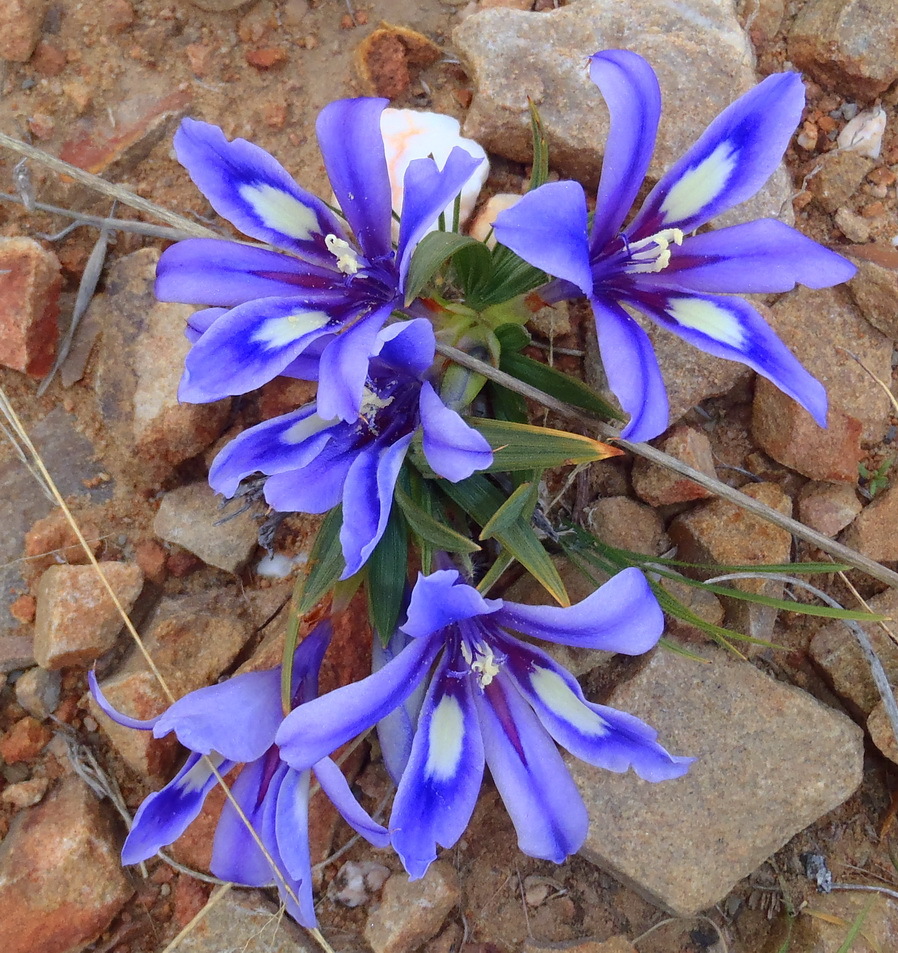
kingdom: Plantae
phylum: Tracheophyta
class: Liliopsida
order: Asparagales
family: Iridaceae
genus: Babiana
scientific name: Babiana sambucina
